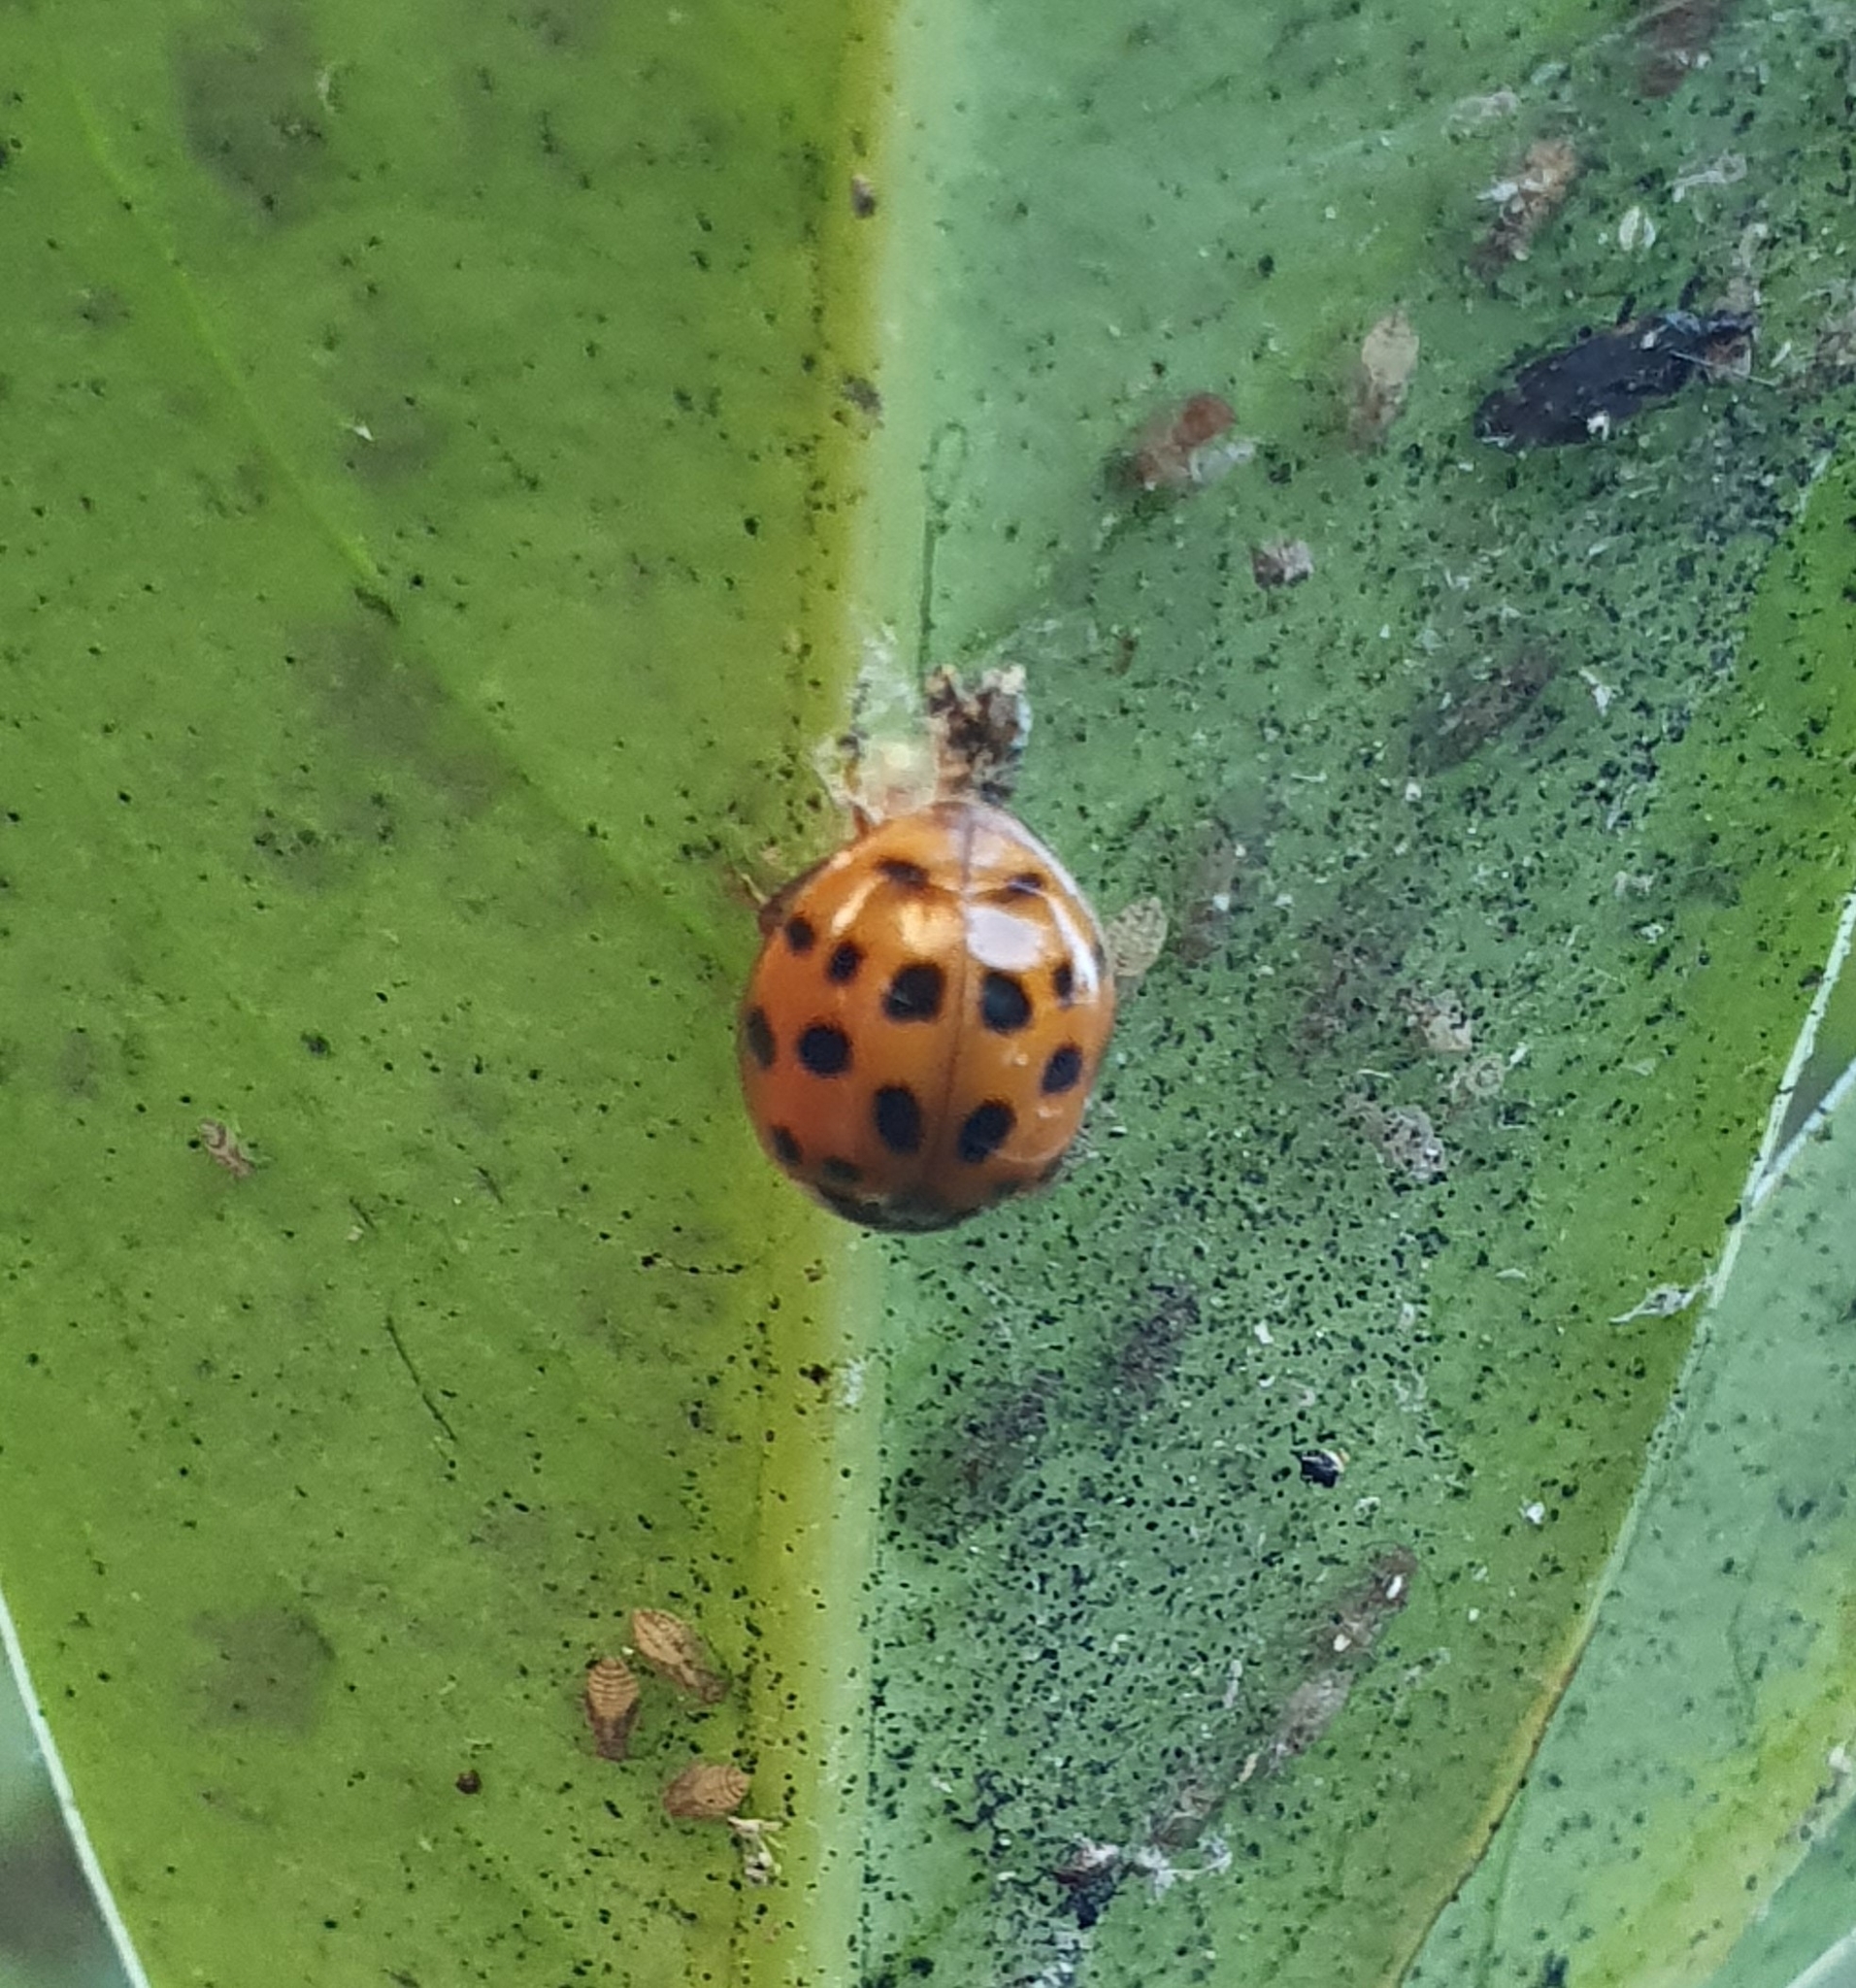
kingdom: Animalia
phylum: Arthropoda
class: Insecta
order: Coleoptera
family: Coccinellidae
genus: Harmonia
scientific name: Harmonia axyridis
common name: Harlequin ladybird
